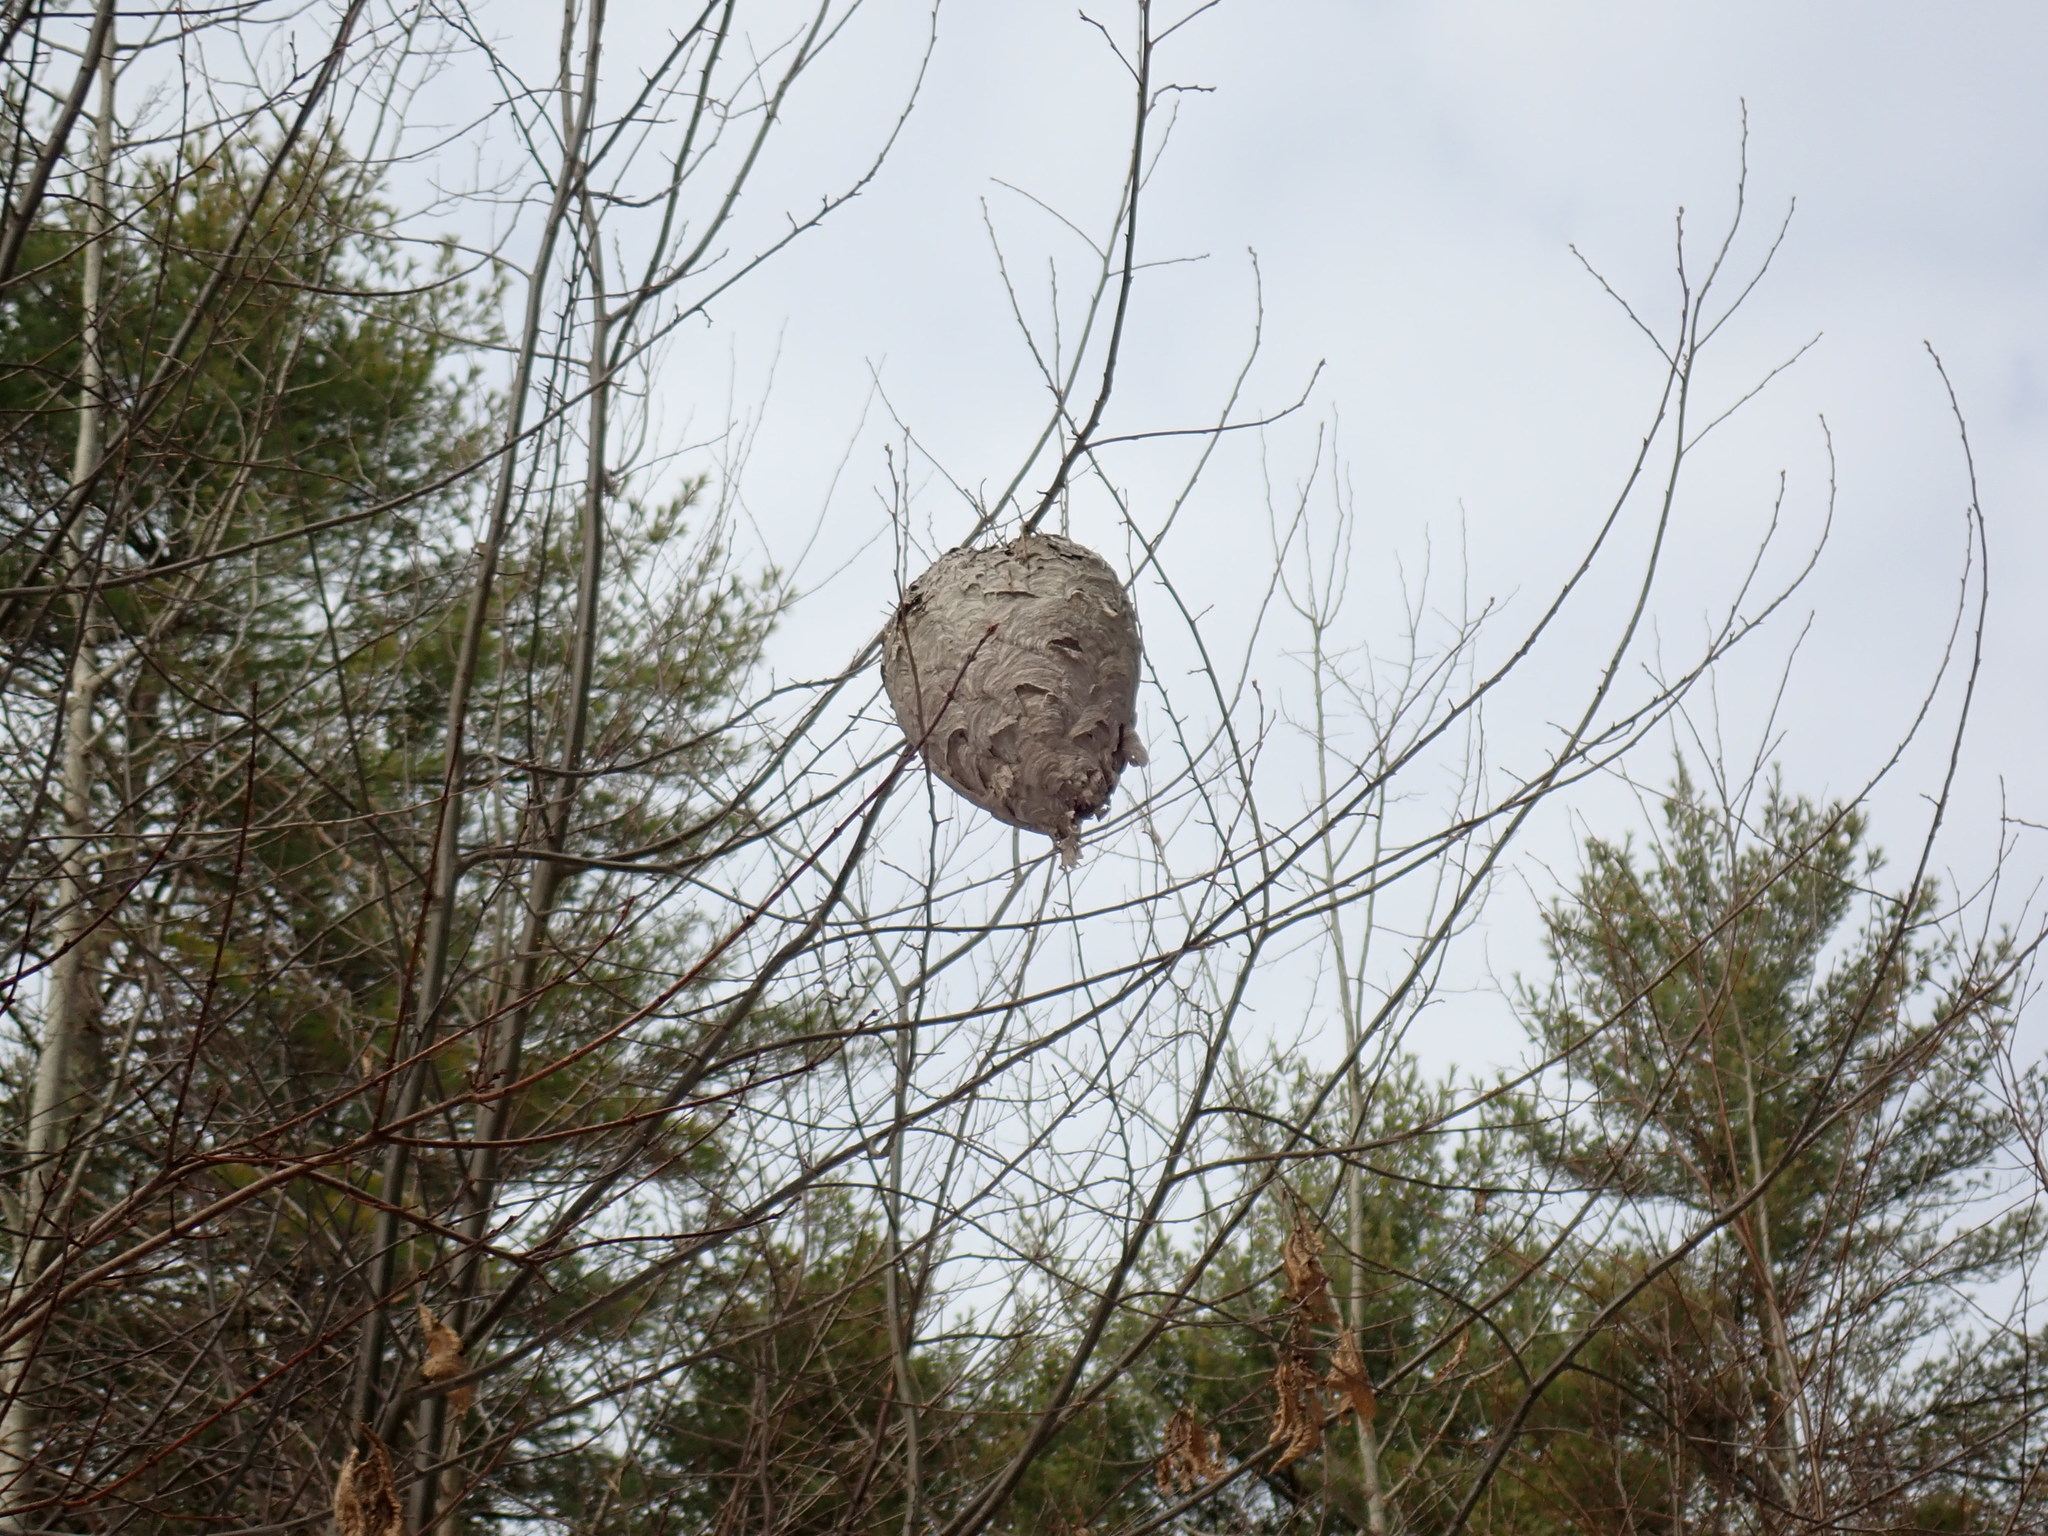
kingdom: Animalia
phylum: Arthropoda
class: Insecta
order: Hymenoptera
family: Vespidae
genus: Dolichovespula
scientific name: Dolichovespula maculata
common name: Bald-faced hornet
